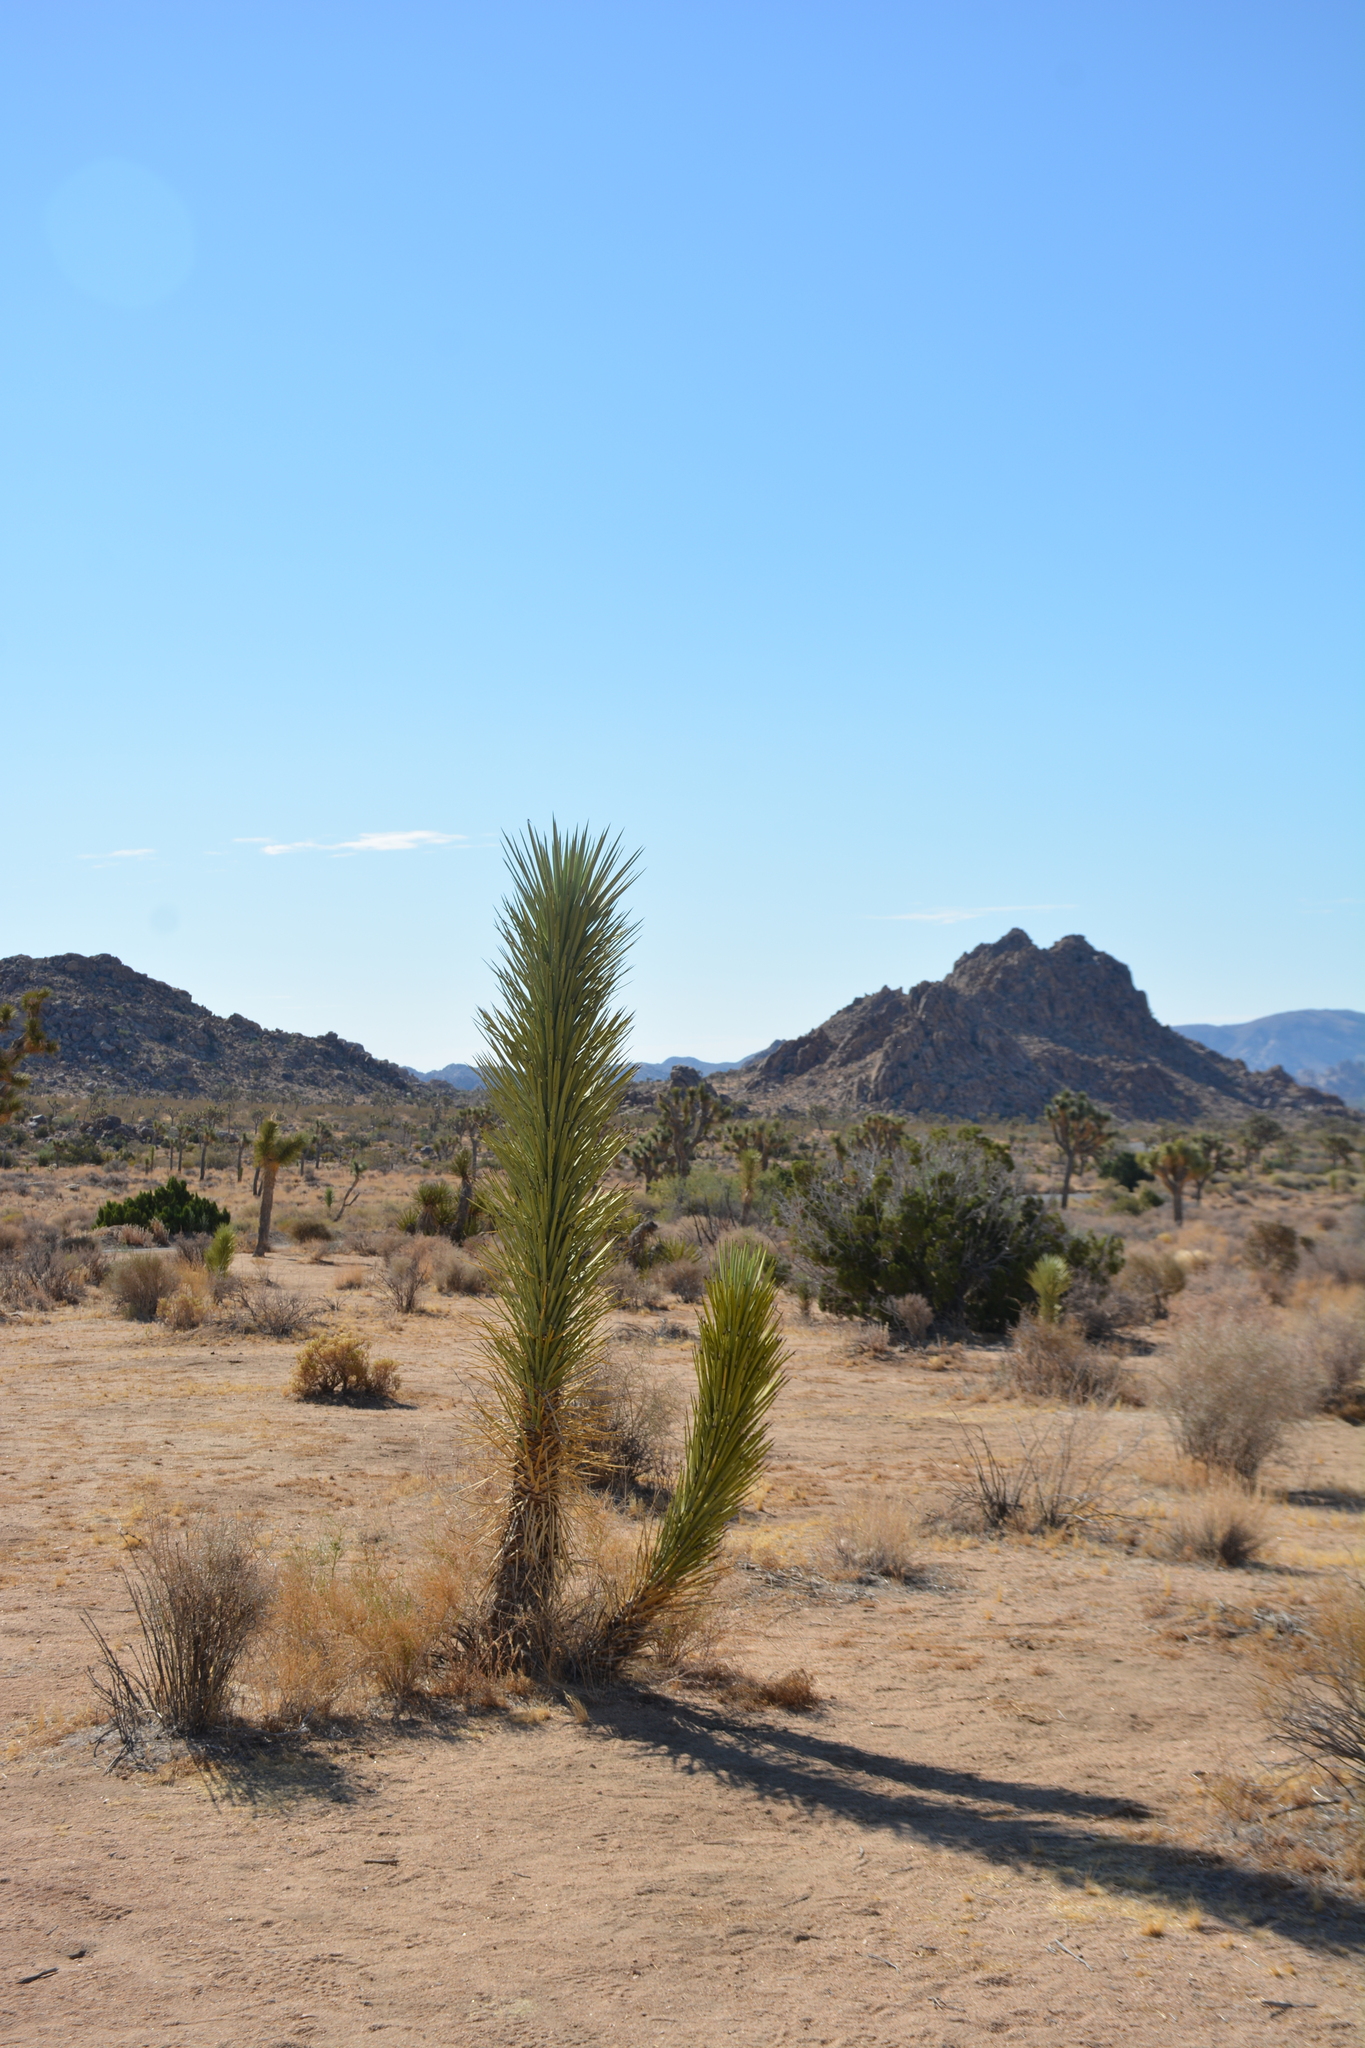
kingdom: Plantae
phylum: Tracheophyta
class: Liliopsida
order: Asparagales
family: Asparagaceae
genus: Yucca
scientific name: Yucca brevifolia
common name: Joshua tree
